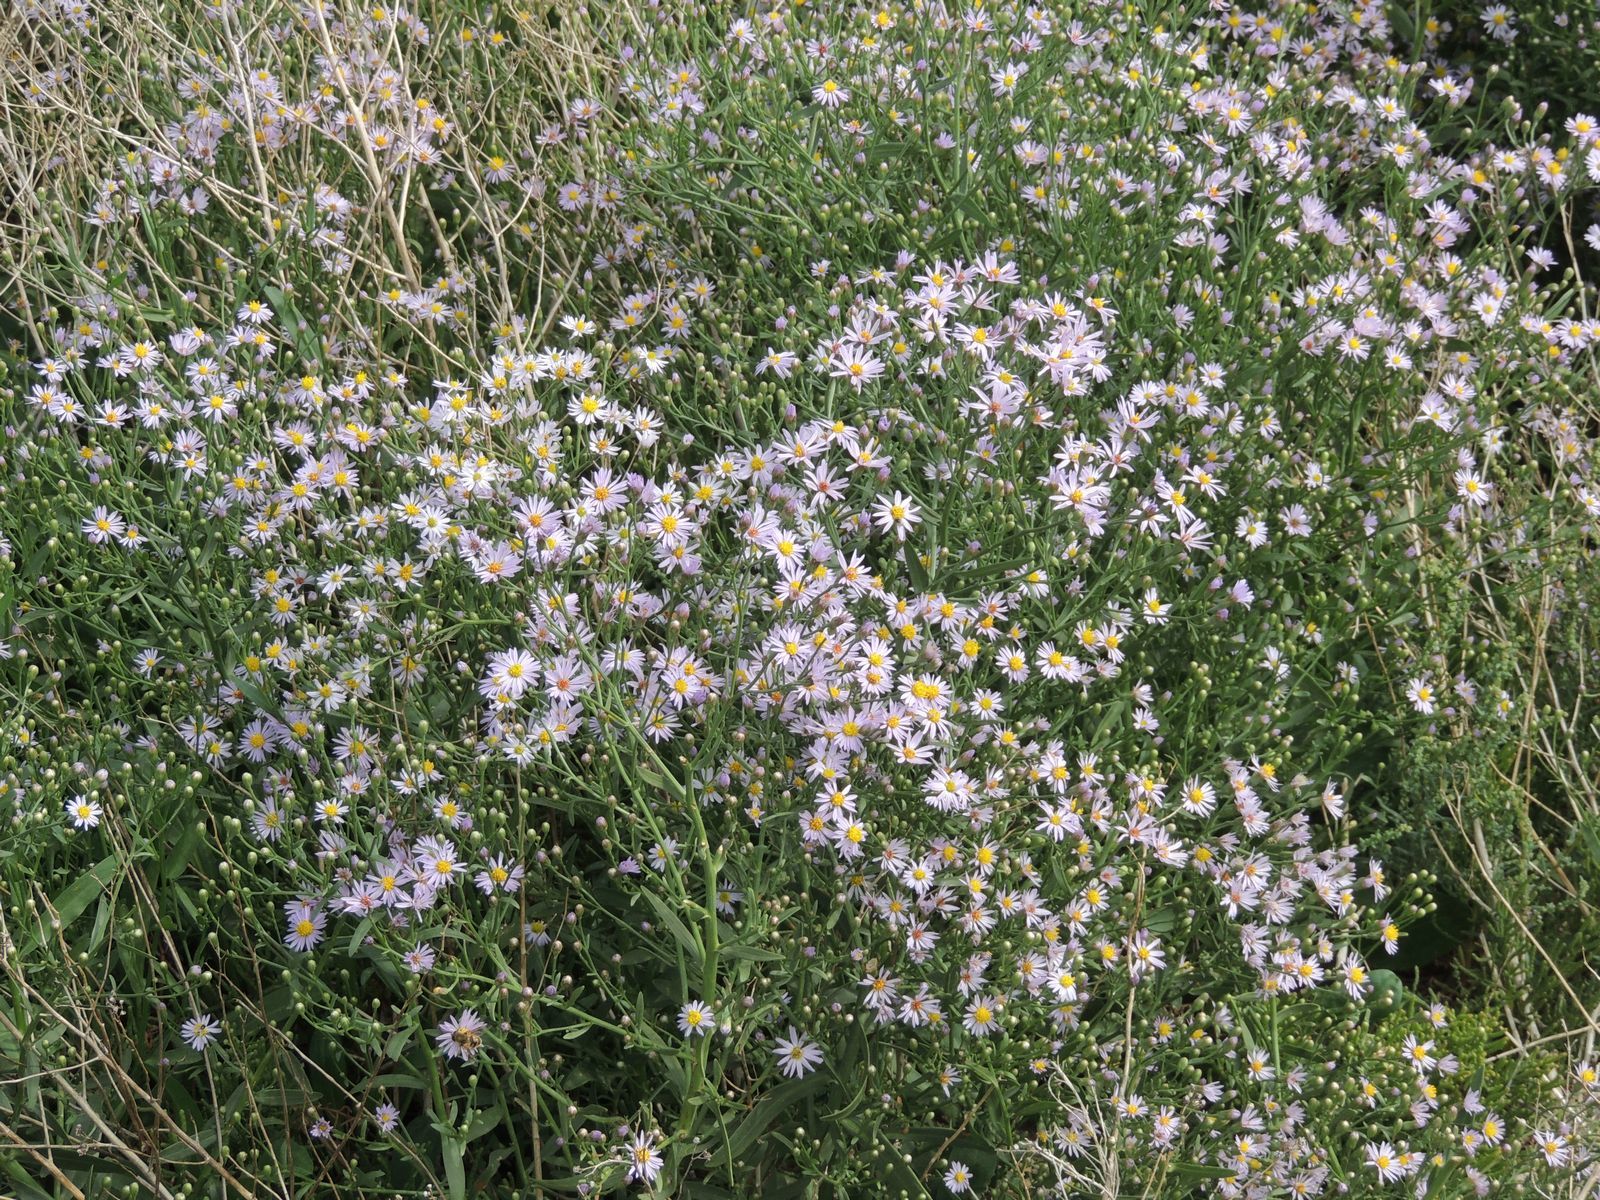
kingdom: Plantae
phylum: Tracheophyta
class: Magnoliopsida
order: Asterales
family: Asteraceae
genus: Tripolium
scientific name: Tripolium pannonicum
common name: Sea aster
